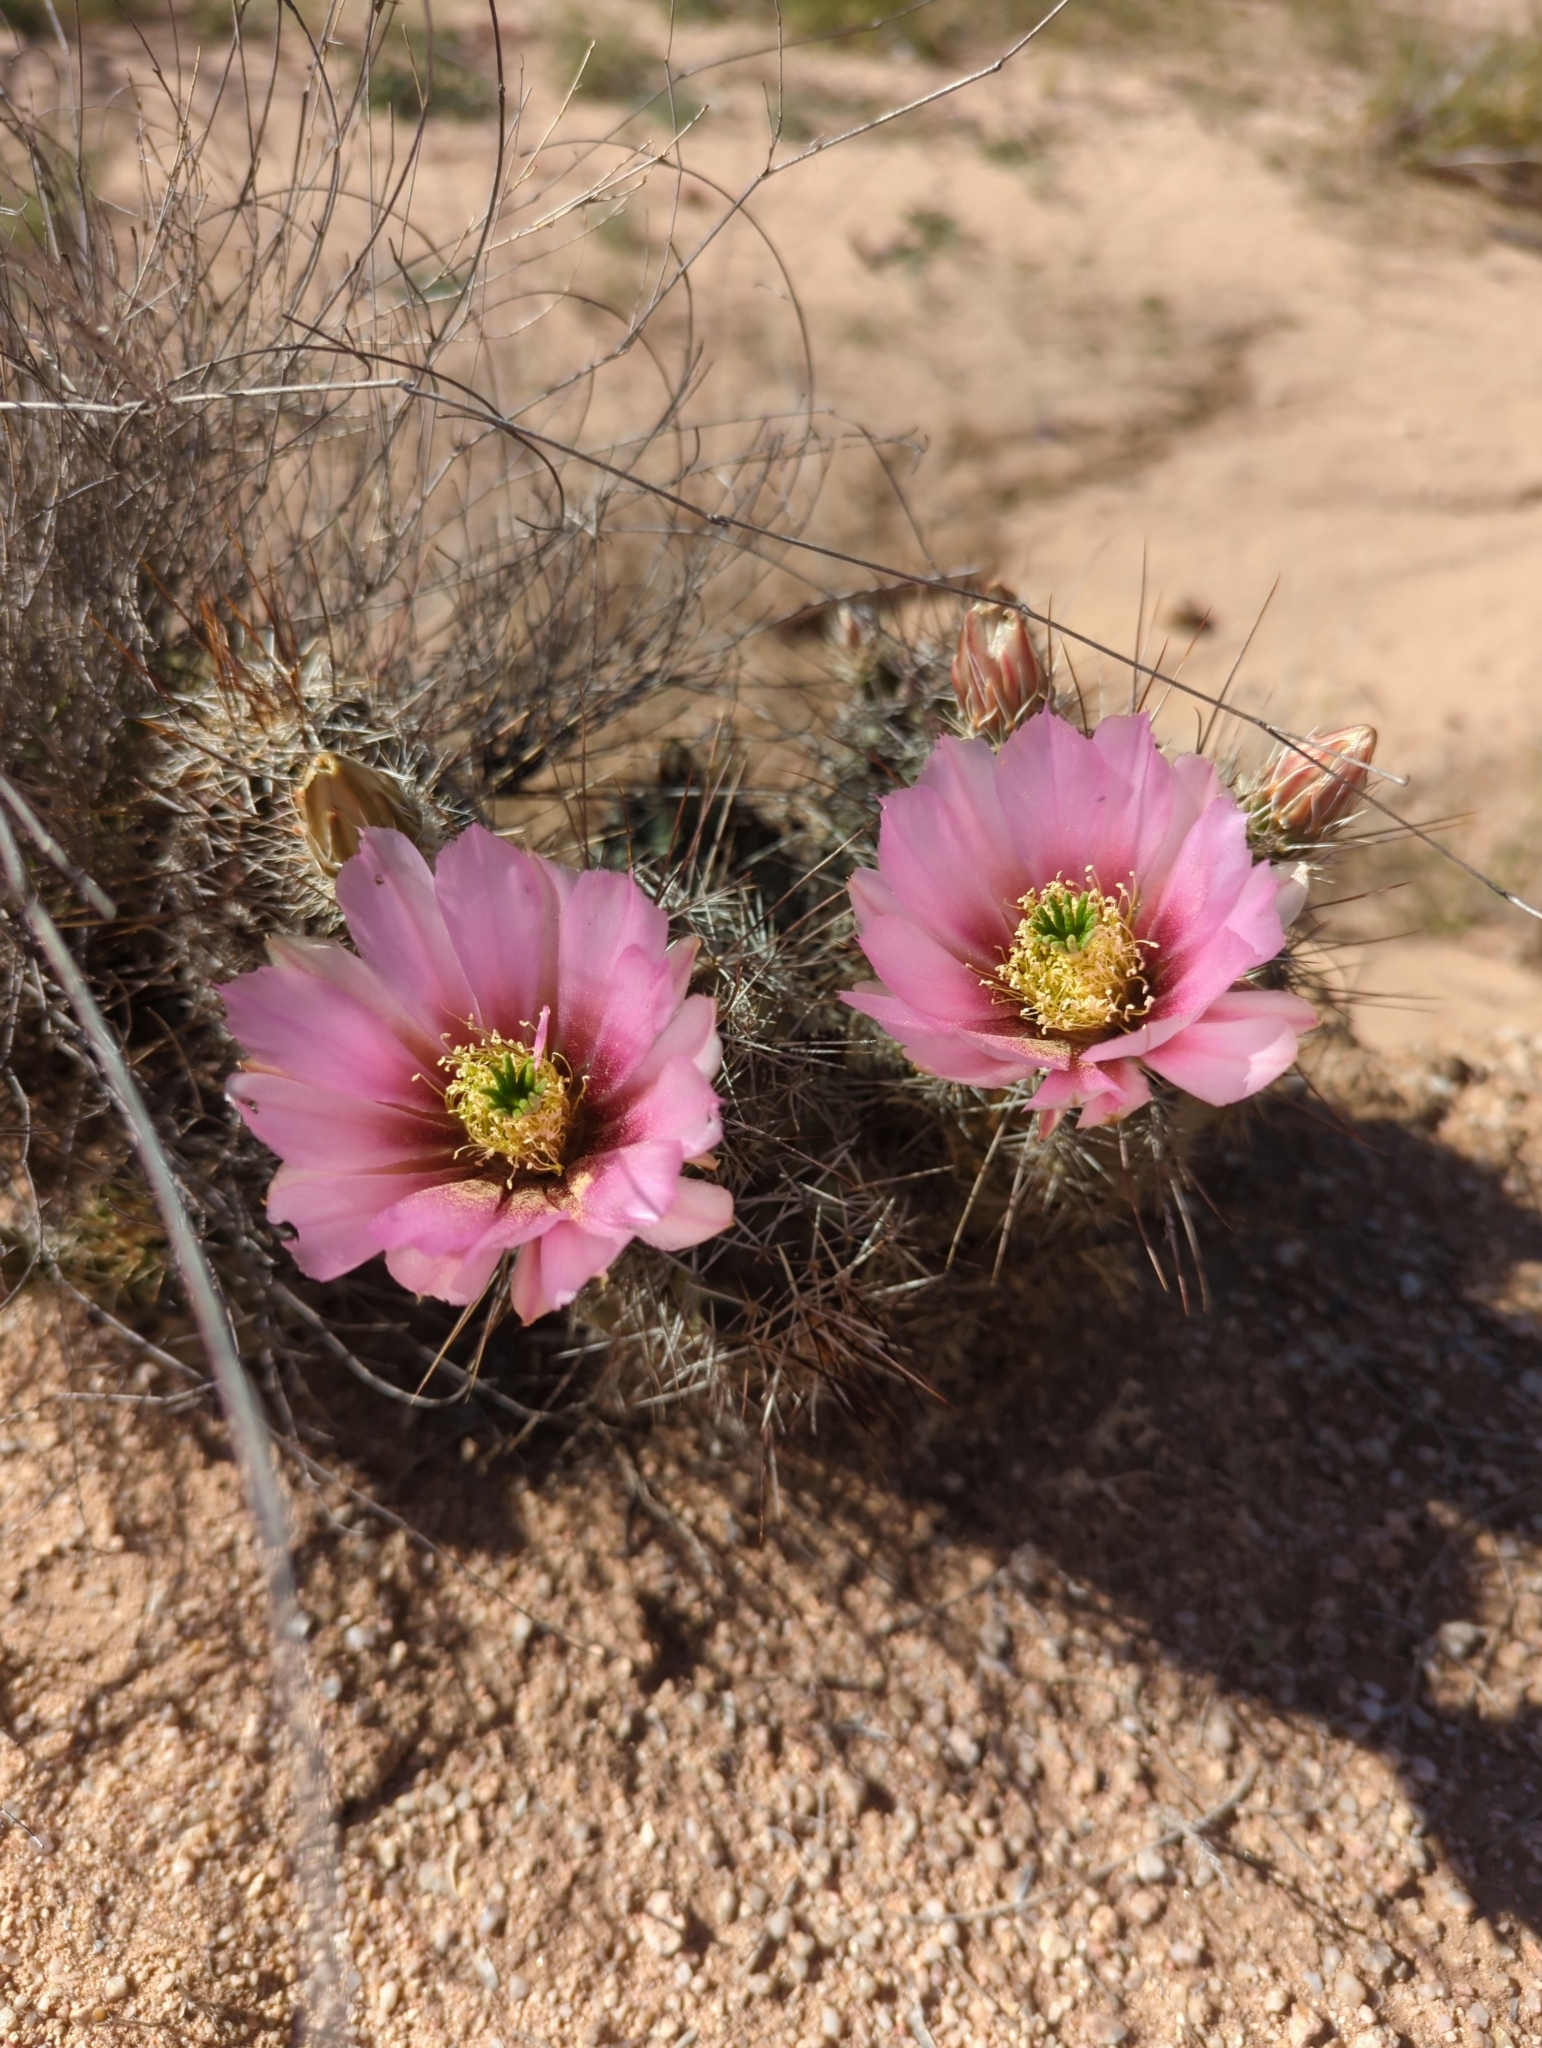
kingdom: Plantae
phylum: Tracheophyta
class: Magnoliopsida
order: Caryophyllales
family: Cactaceae
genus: Echinocereus
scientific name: Echinocereus fasciculatus
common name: Bundle hedgehog
